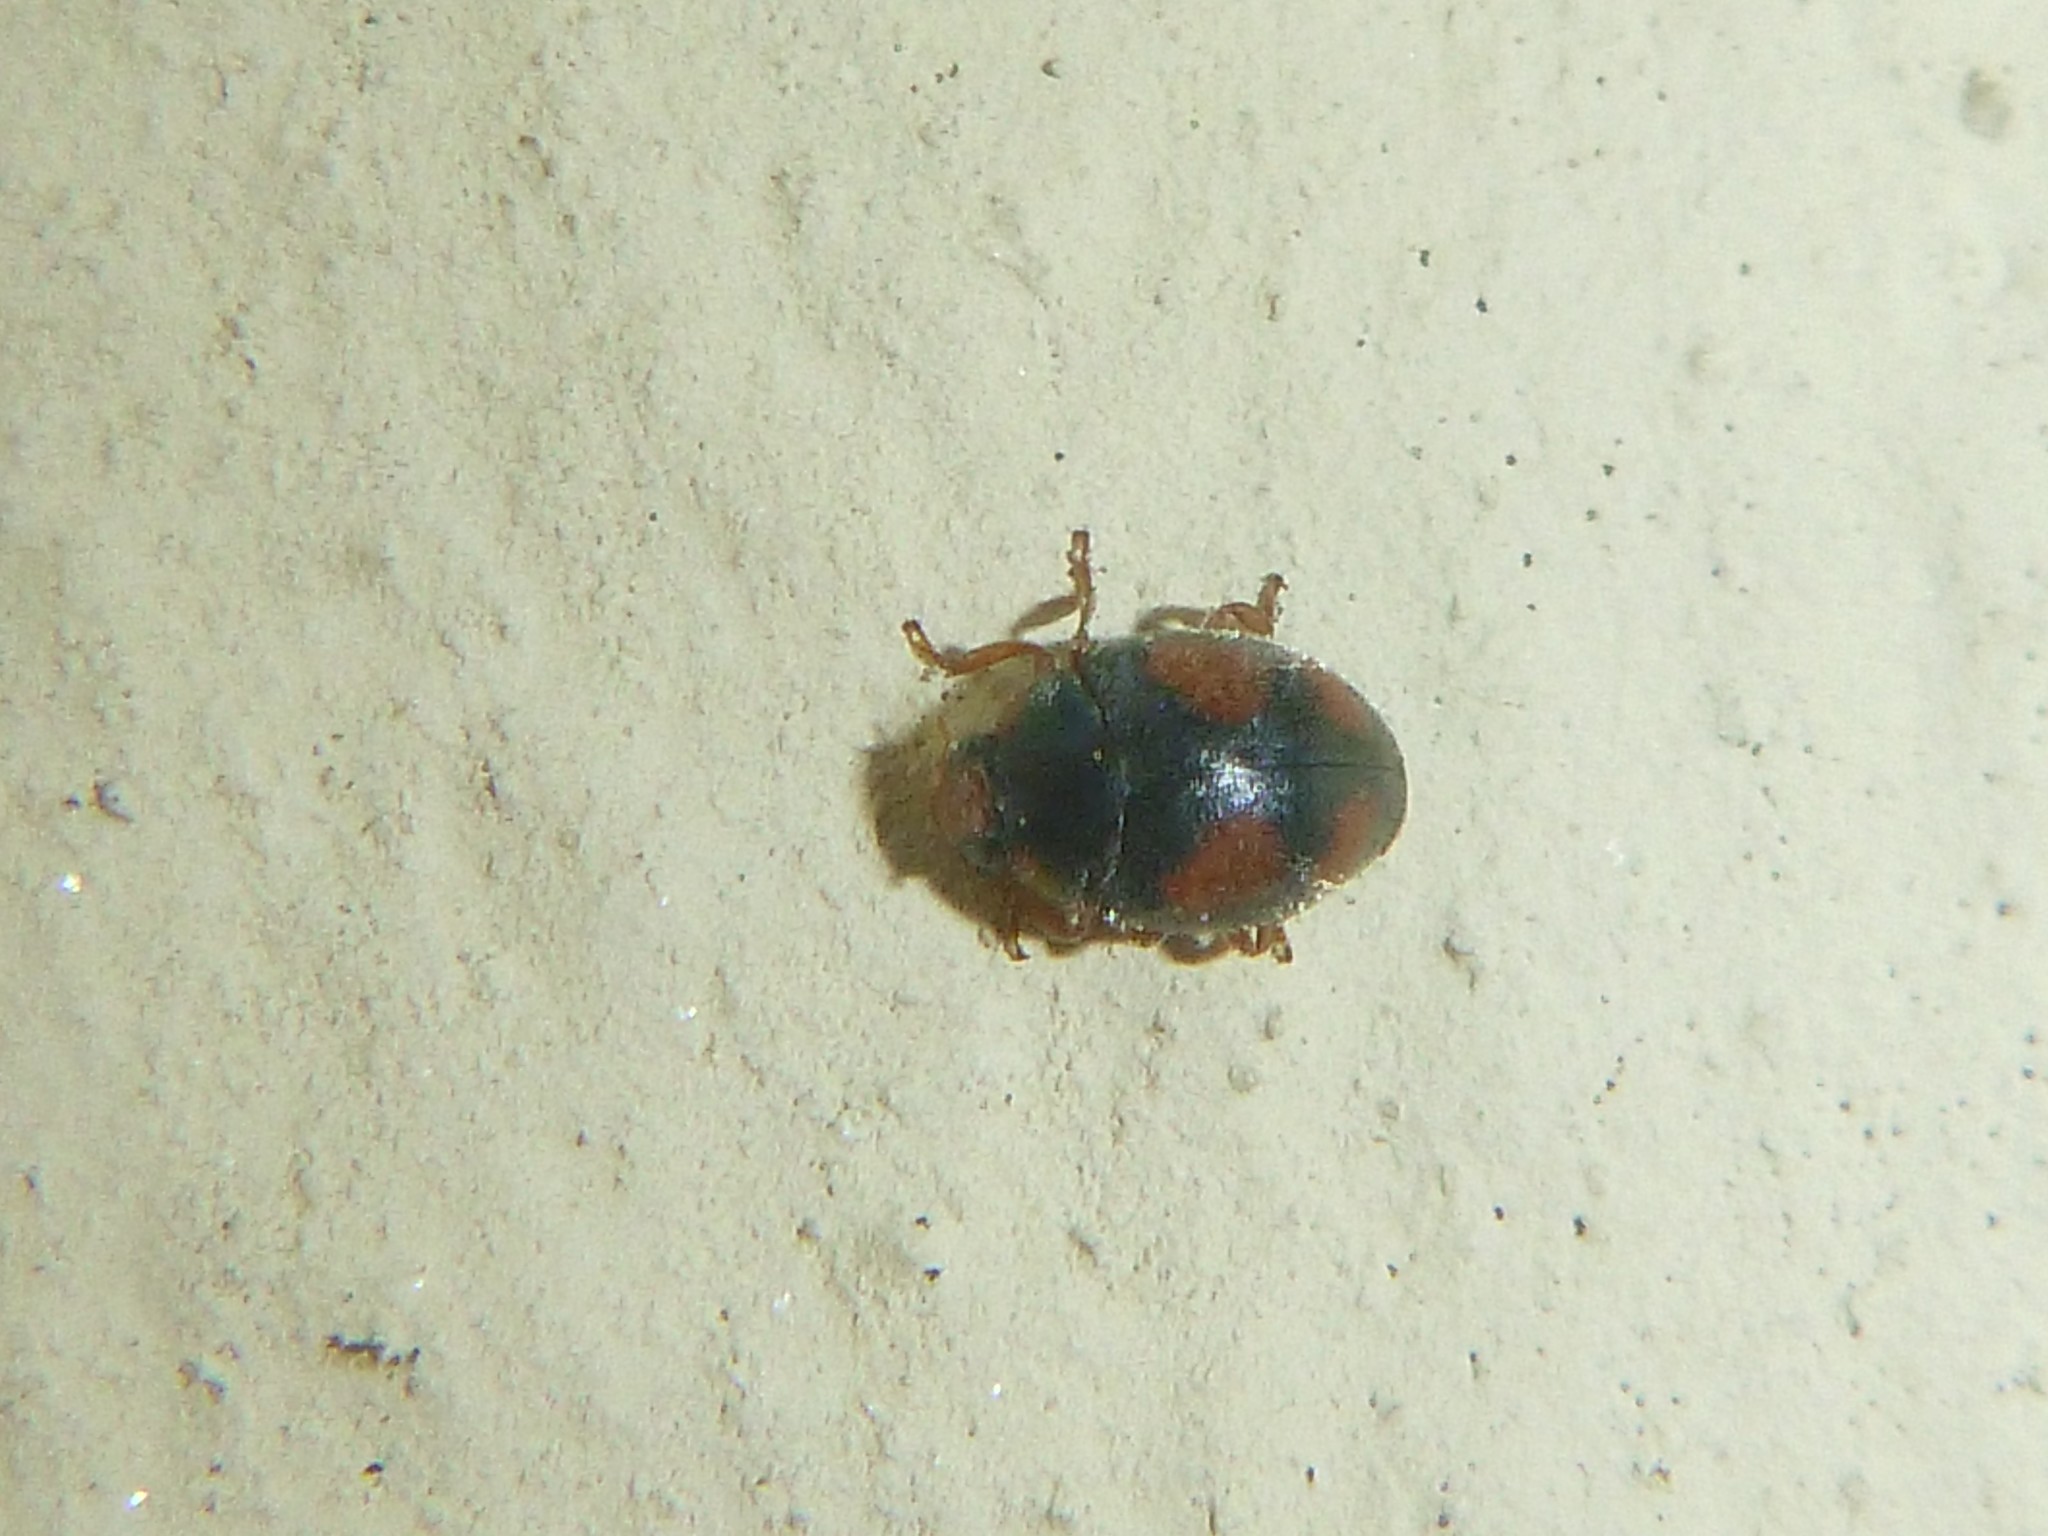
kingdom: Animalia
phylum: Arthropoda
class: Insecta
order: Coleoptera
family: Coccinellidae
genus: Scymnus
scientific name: Scymnus frontalis
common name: Ladybird beetle
